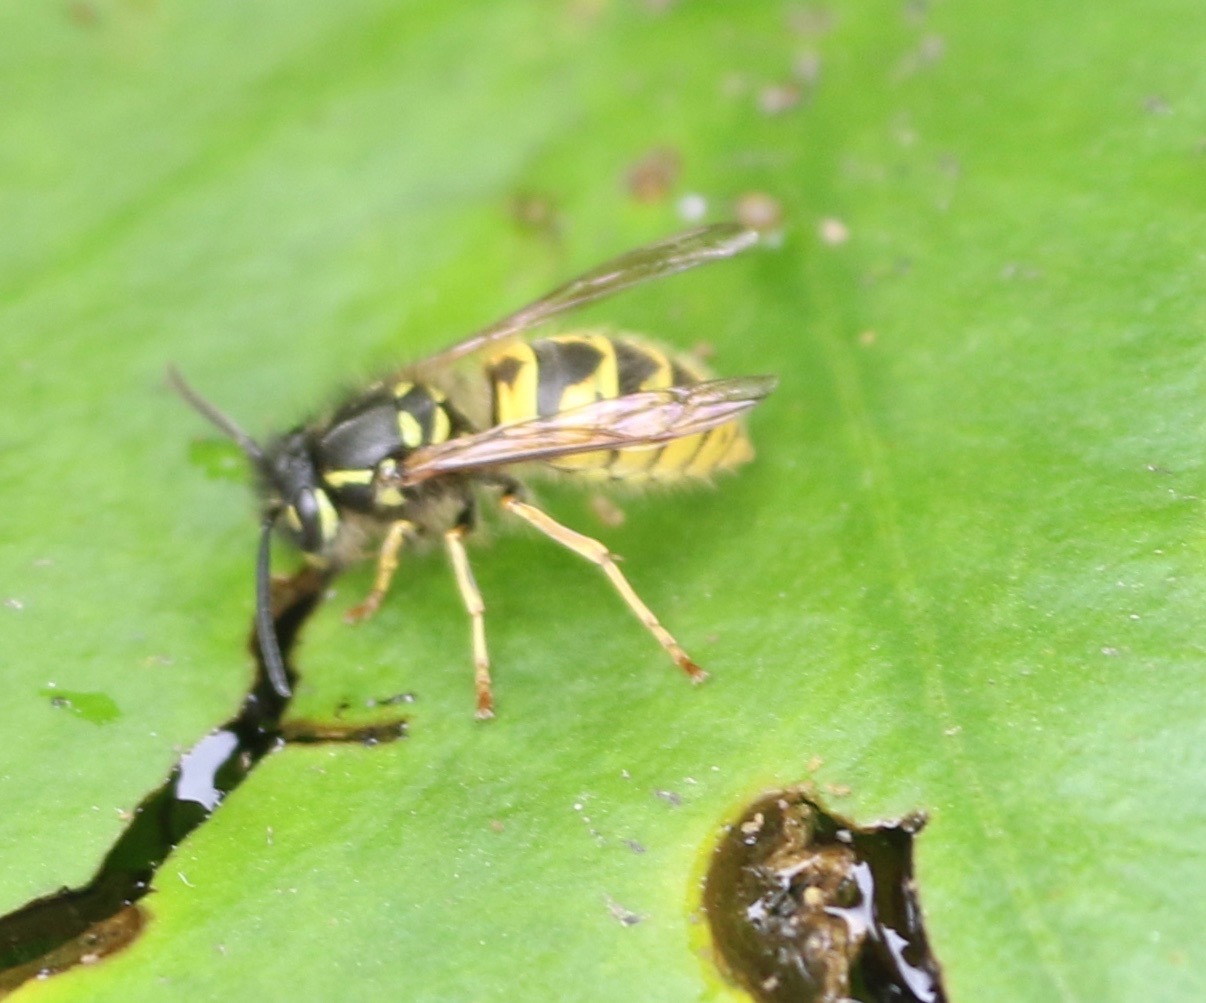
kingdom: Animalia
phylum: Arthropoda
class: Insecta
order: Hymenoptera
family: Vespidae
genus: Vespula
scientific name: Vespula vulgaris
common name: Common wasp
